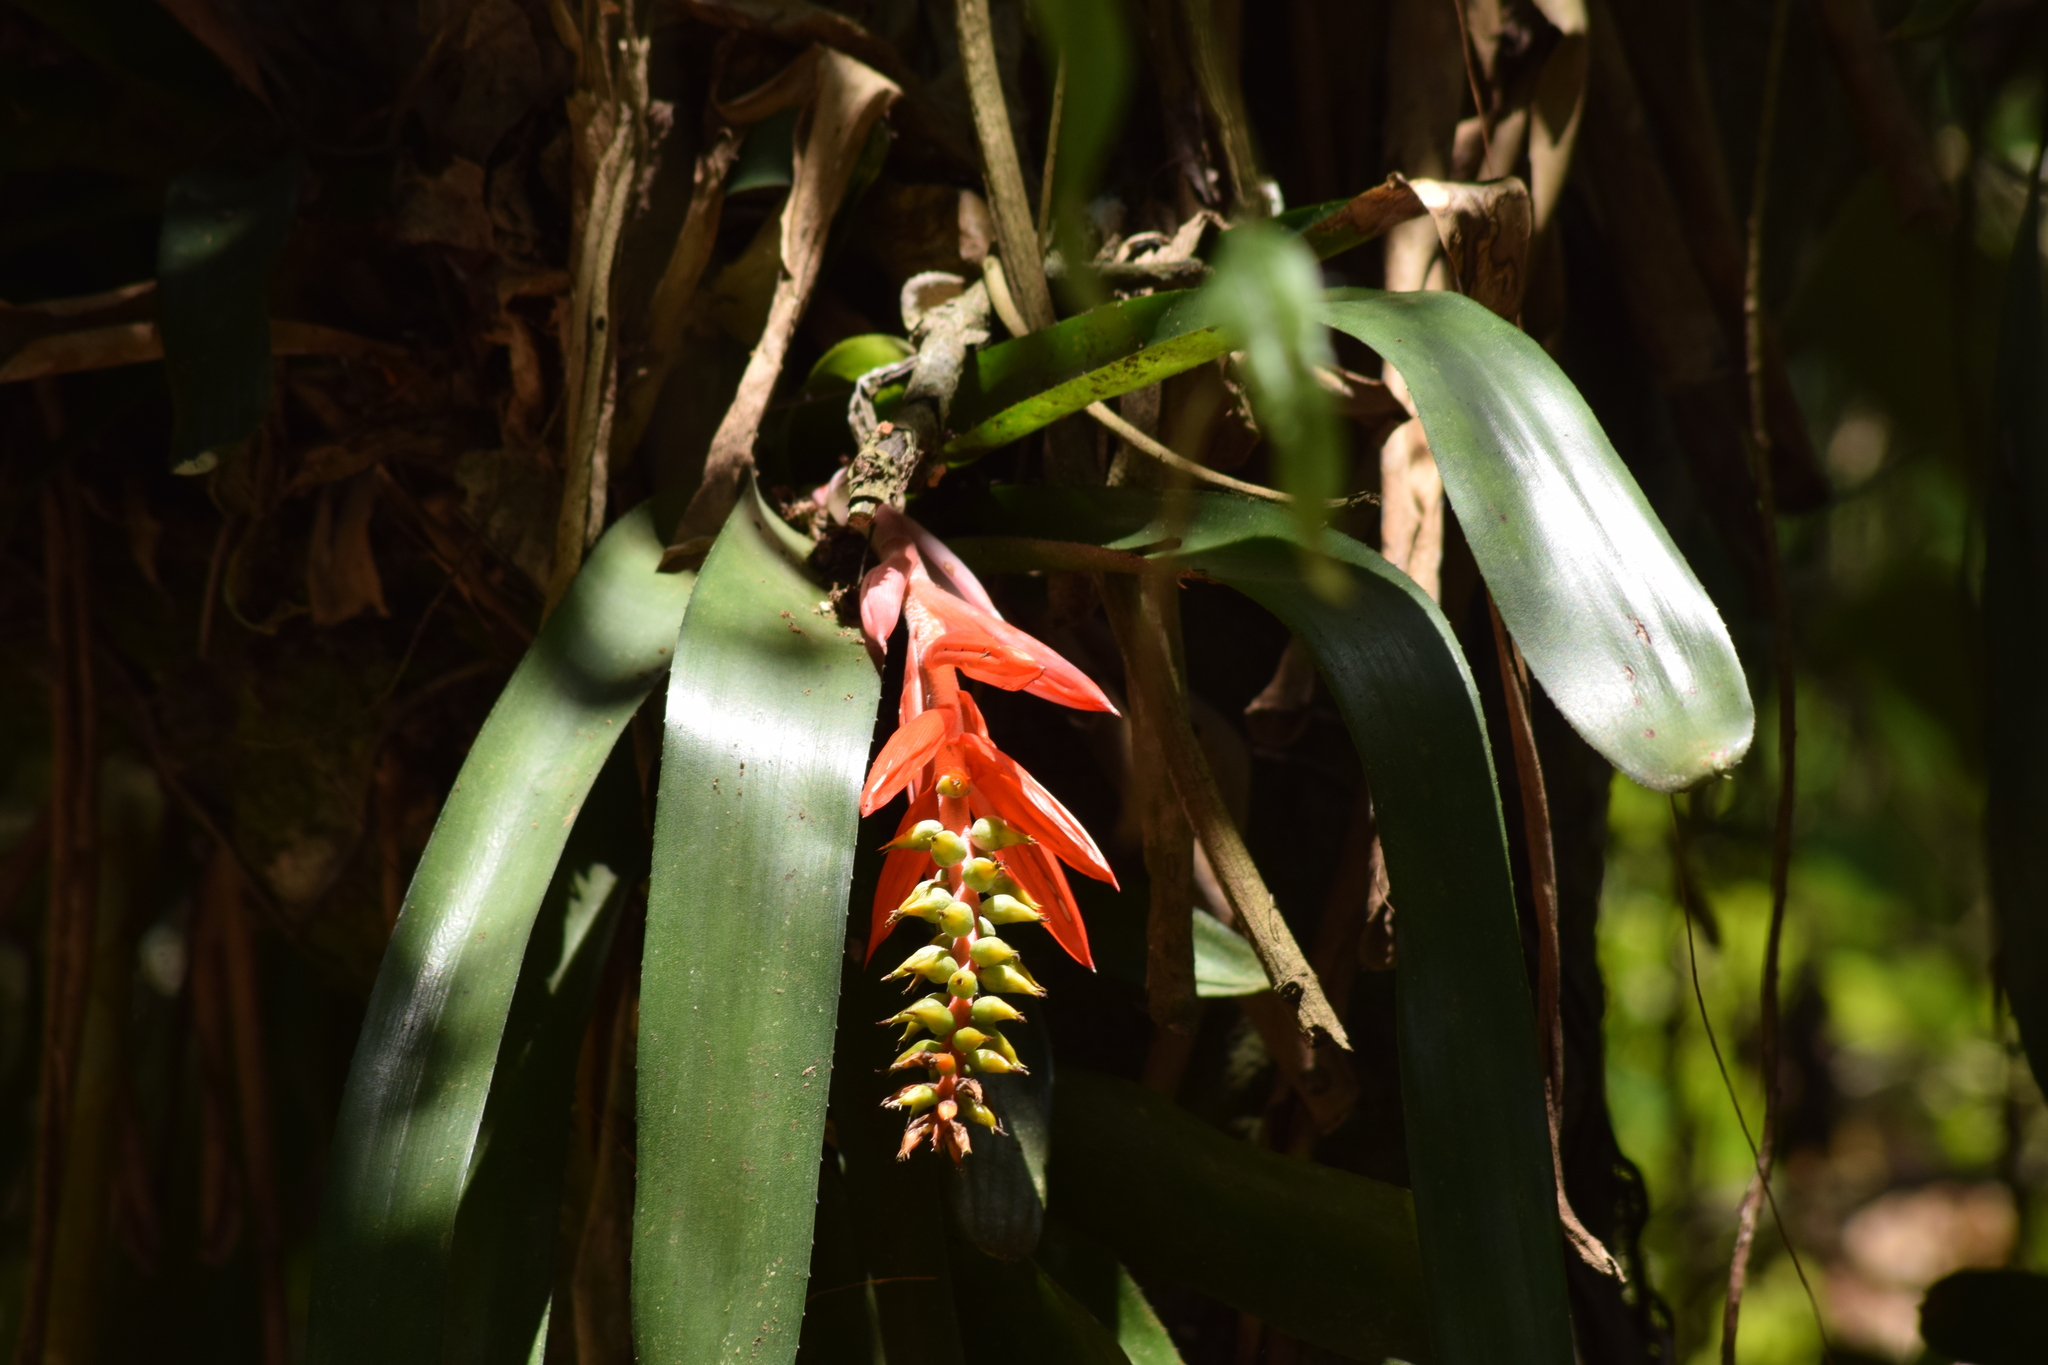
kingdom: Plantae
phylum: Tracheophyta
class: Liliopsida
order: Poales
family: Bromeliaceae
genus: Aechmea
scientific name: Aechmea nudicaulis
